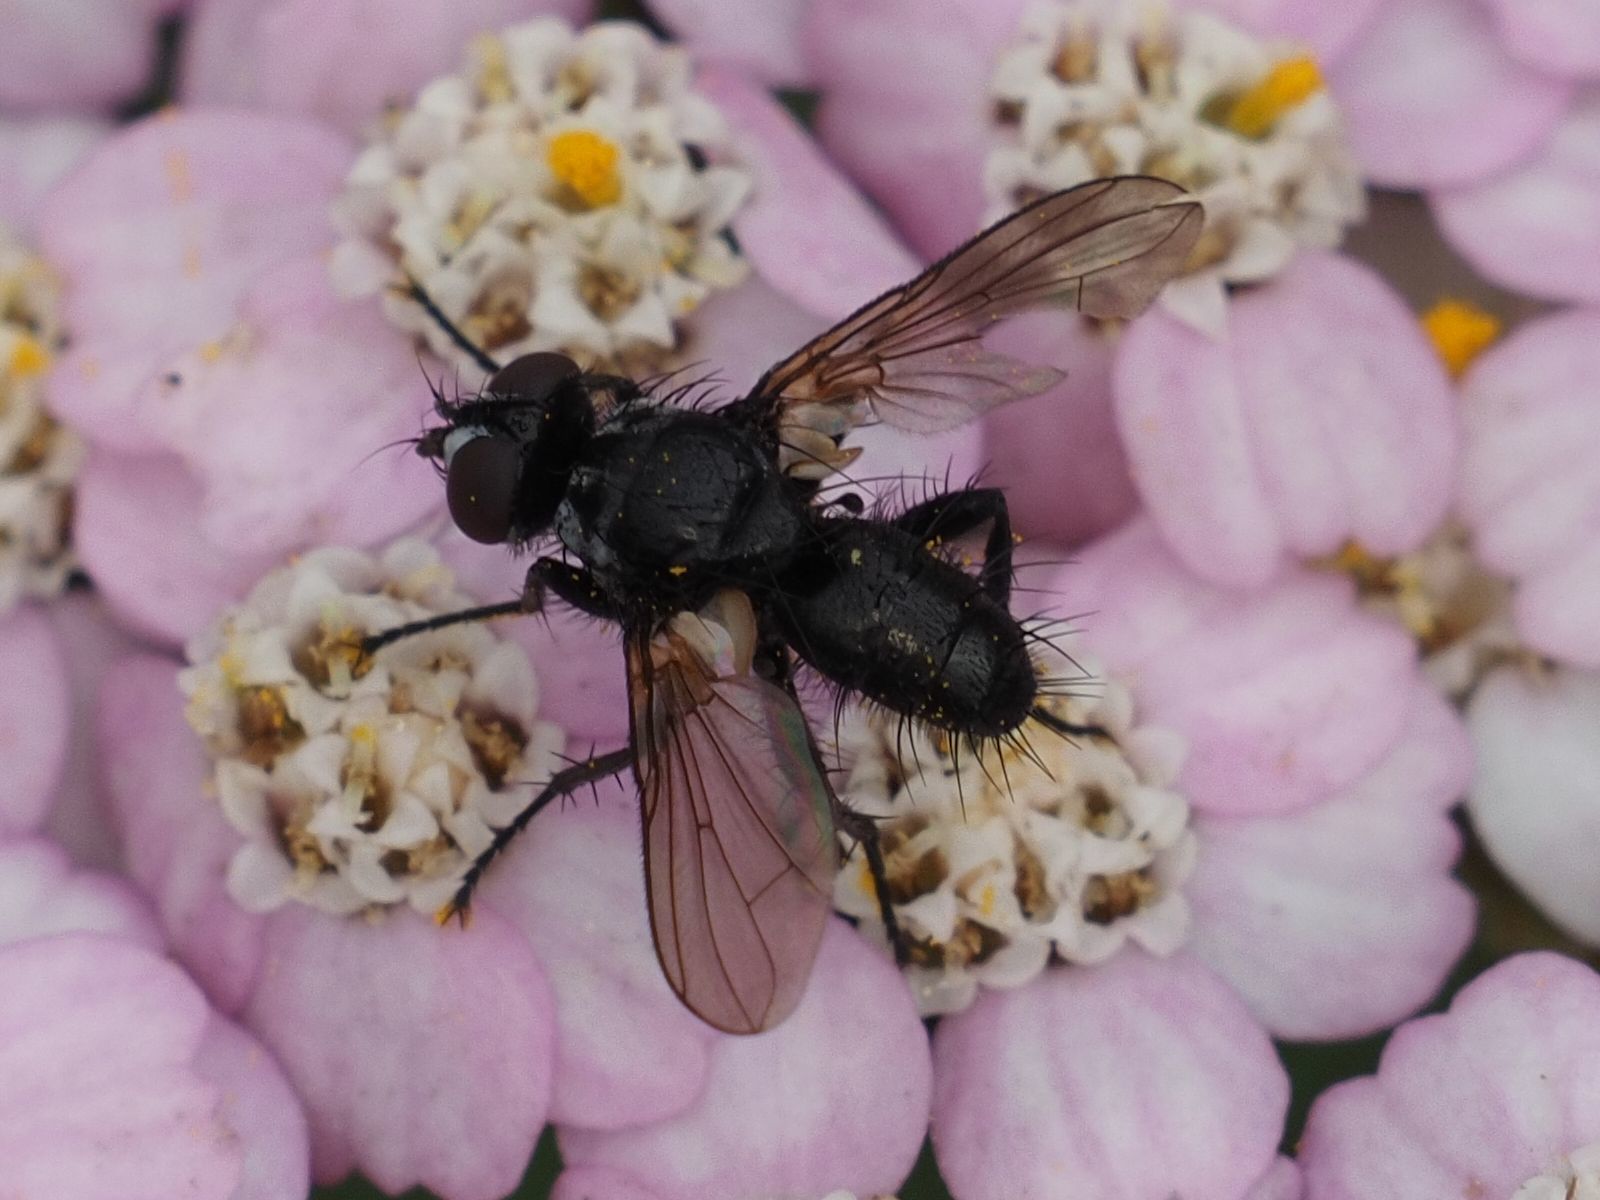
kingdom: Animalia
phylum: Arthropoda
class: Insecta
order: Diptera
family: Tachinidae
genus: Phania
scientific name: Phania funesta
